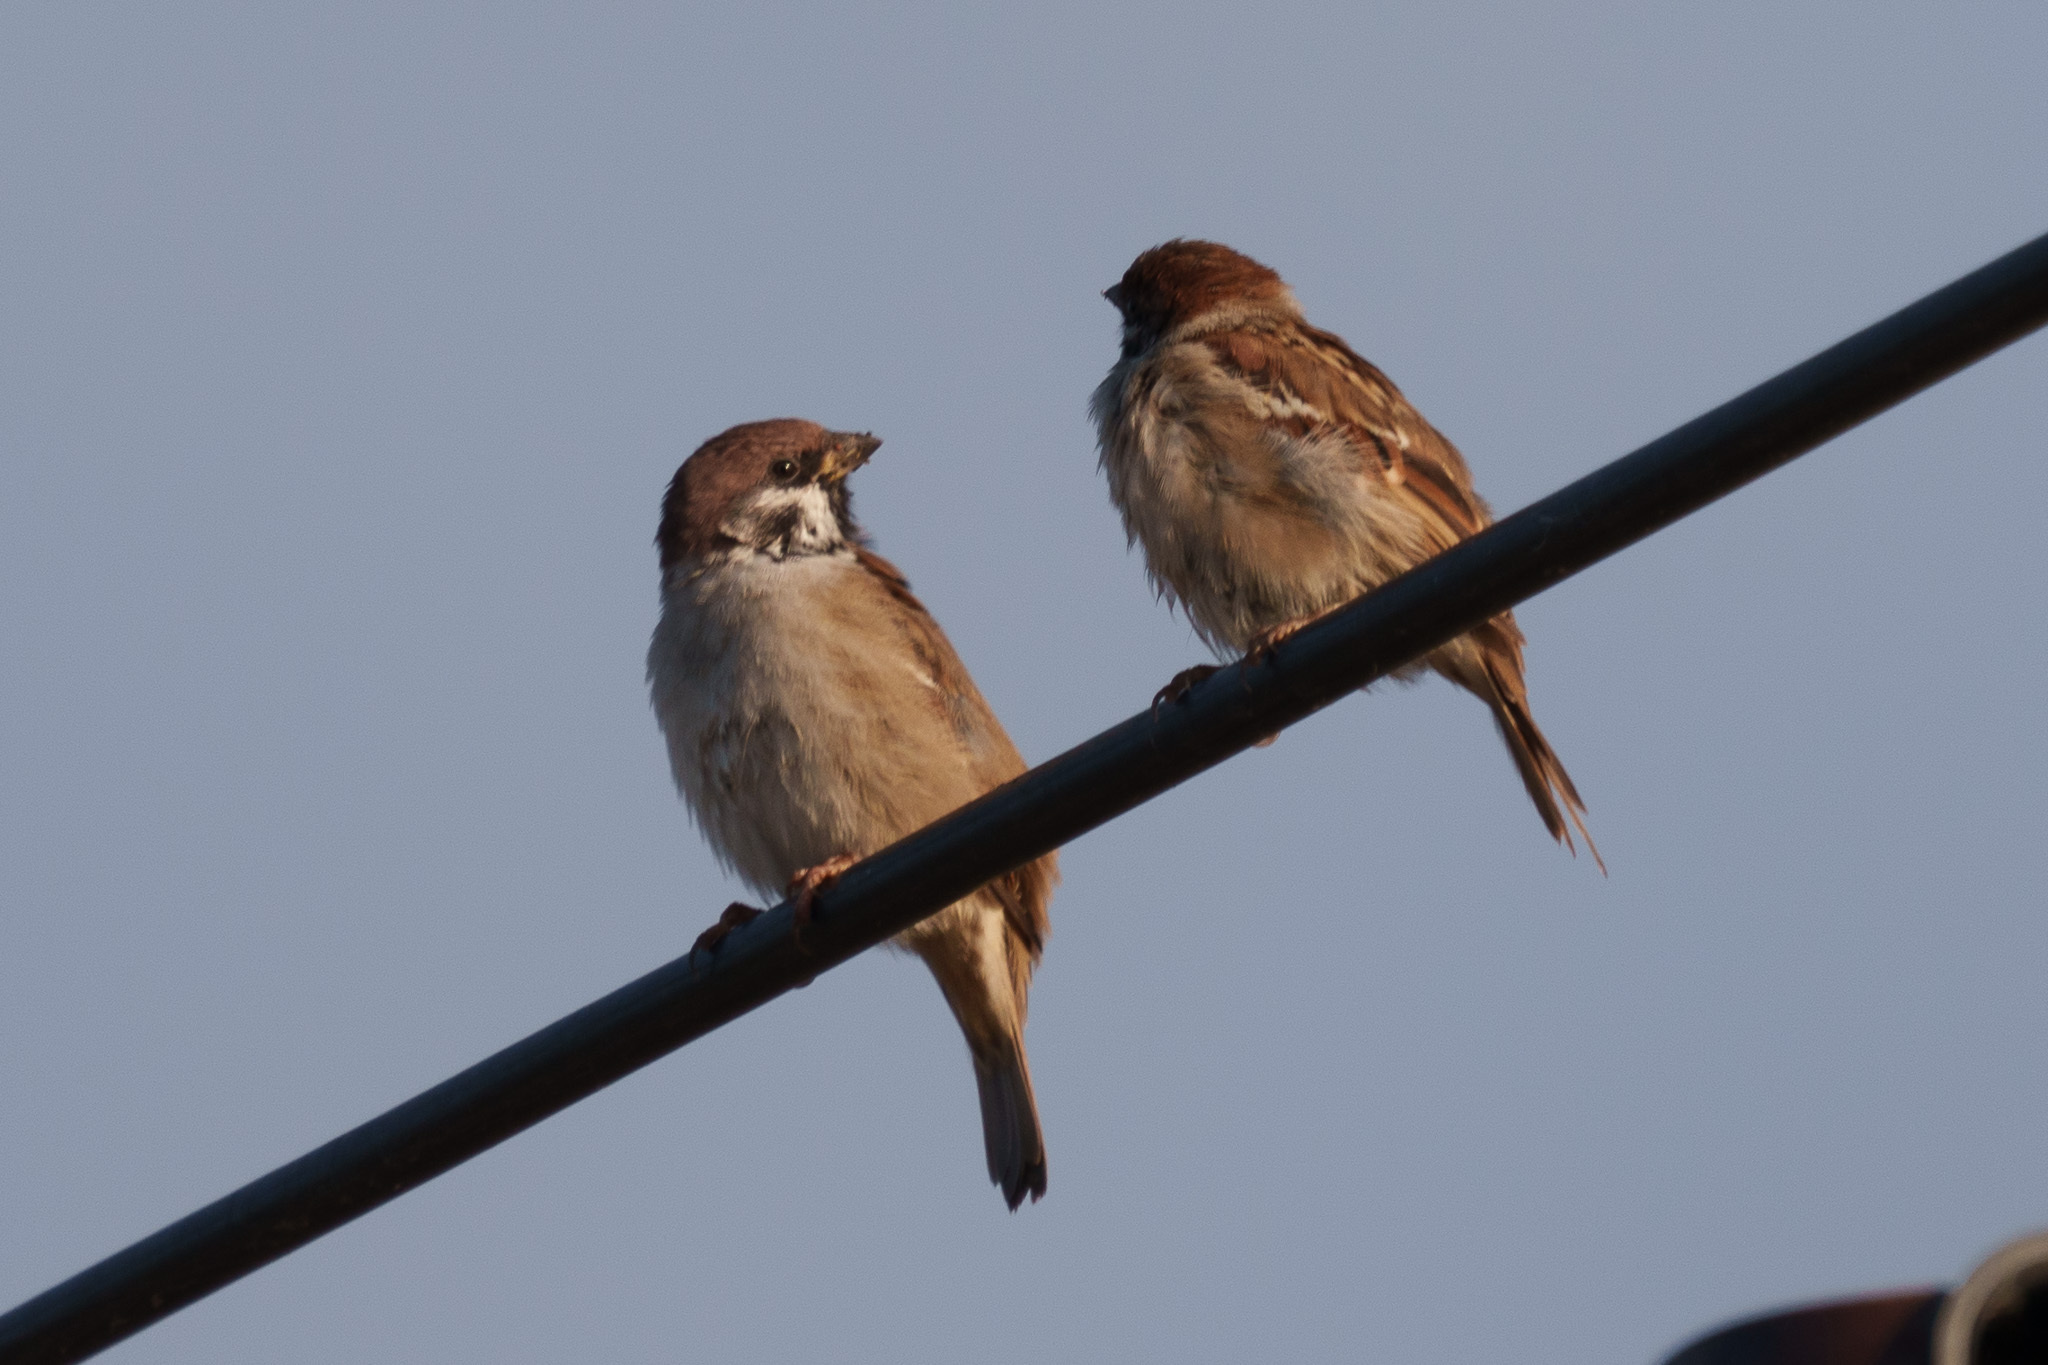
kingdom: Animalia
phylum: Chordata
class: Aves
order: Passeriformes
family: Passeridae
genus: Passer
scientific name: Passer montanus
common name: Eurasian tree sparrow
